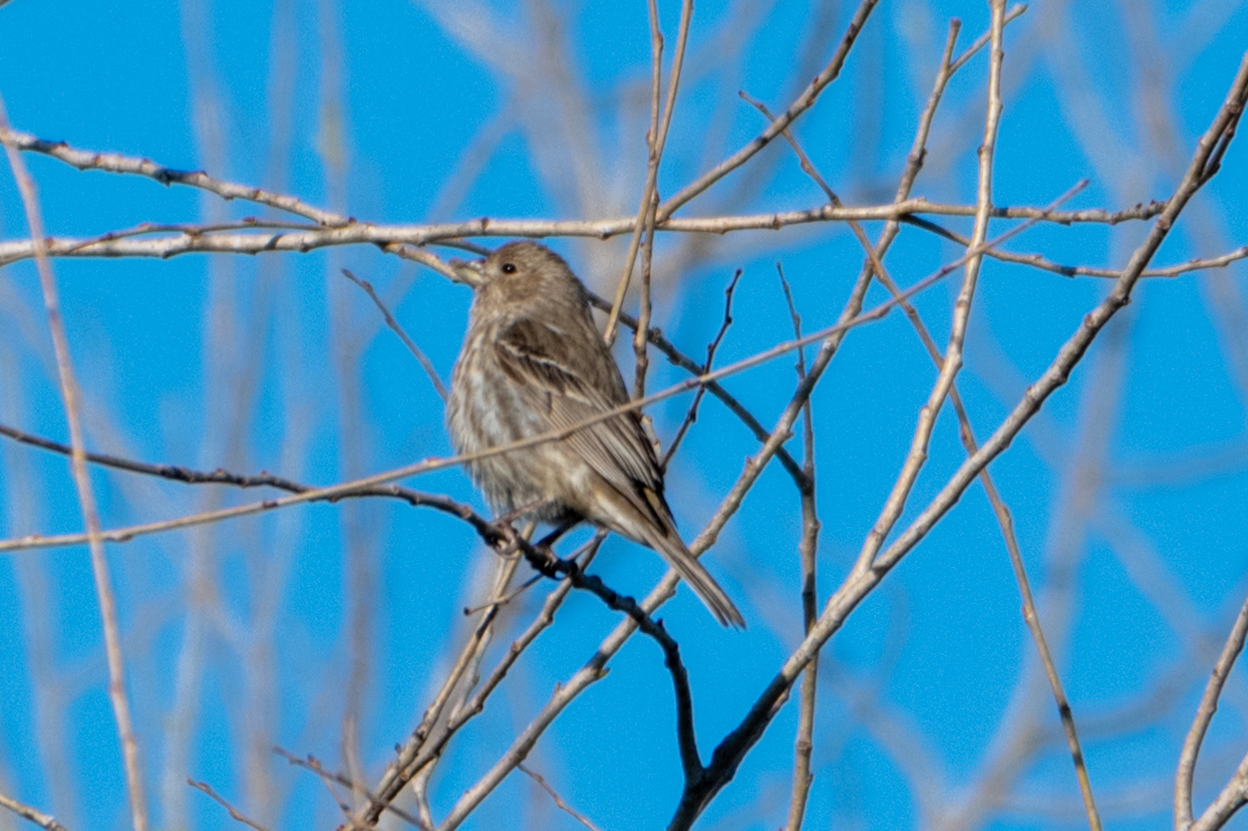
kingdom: Animalia
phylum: Chordata
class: Aves
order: Passeriformes
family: Fringillidae
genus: Haemorhous
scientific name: Haemorhous mexicanus
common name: House finch
